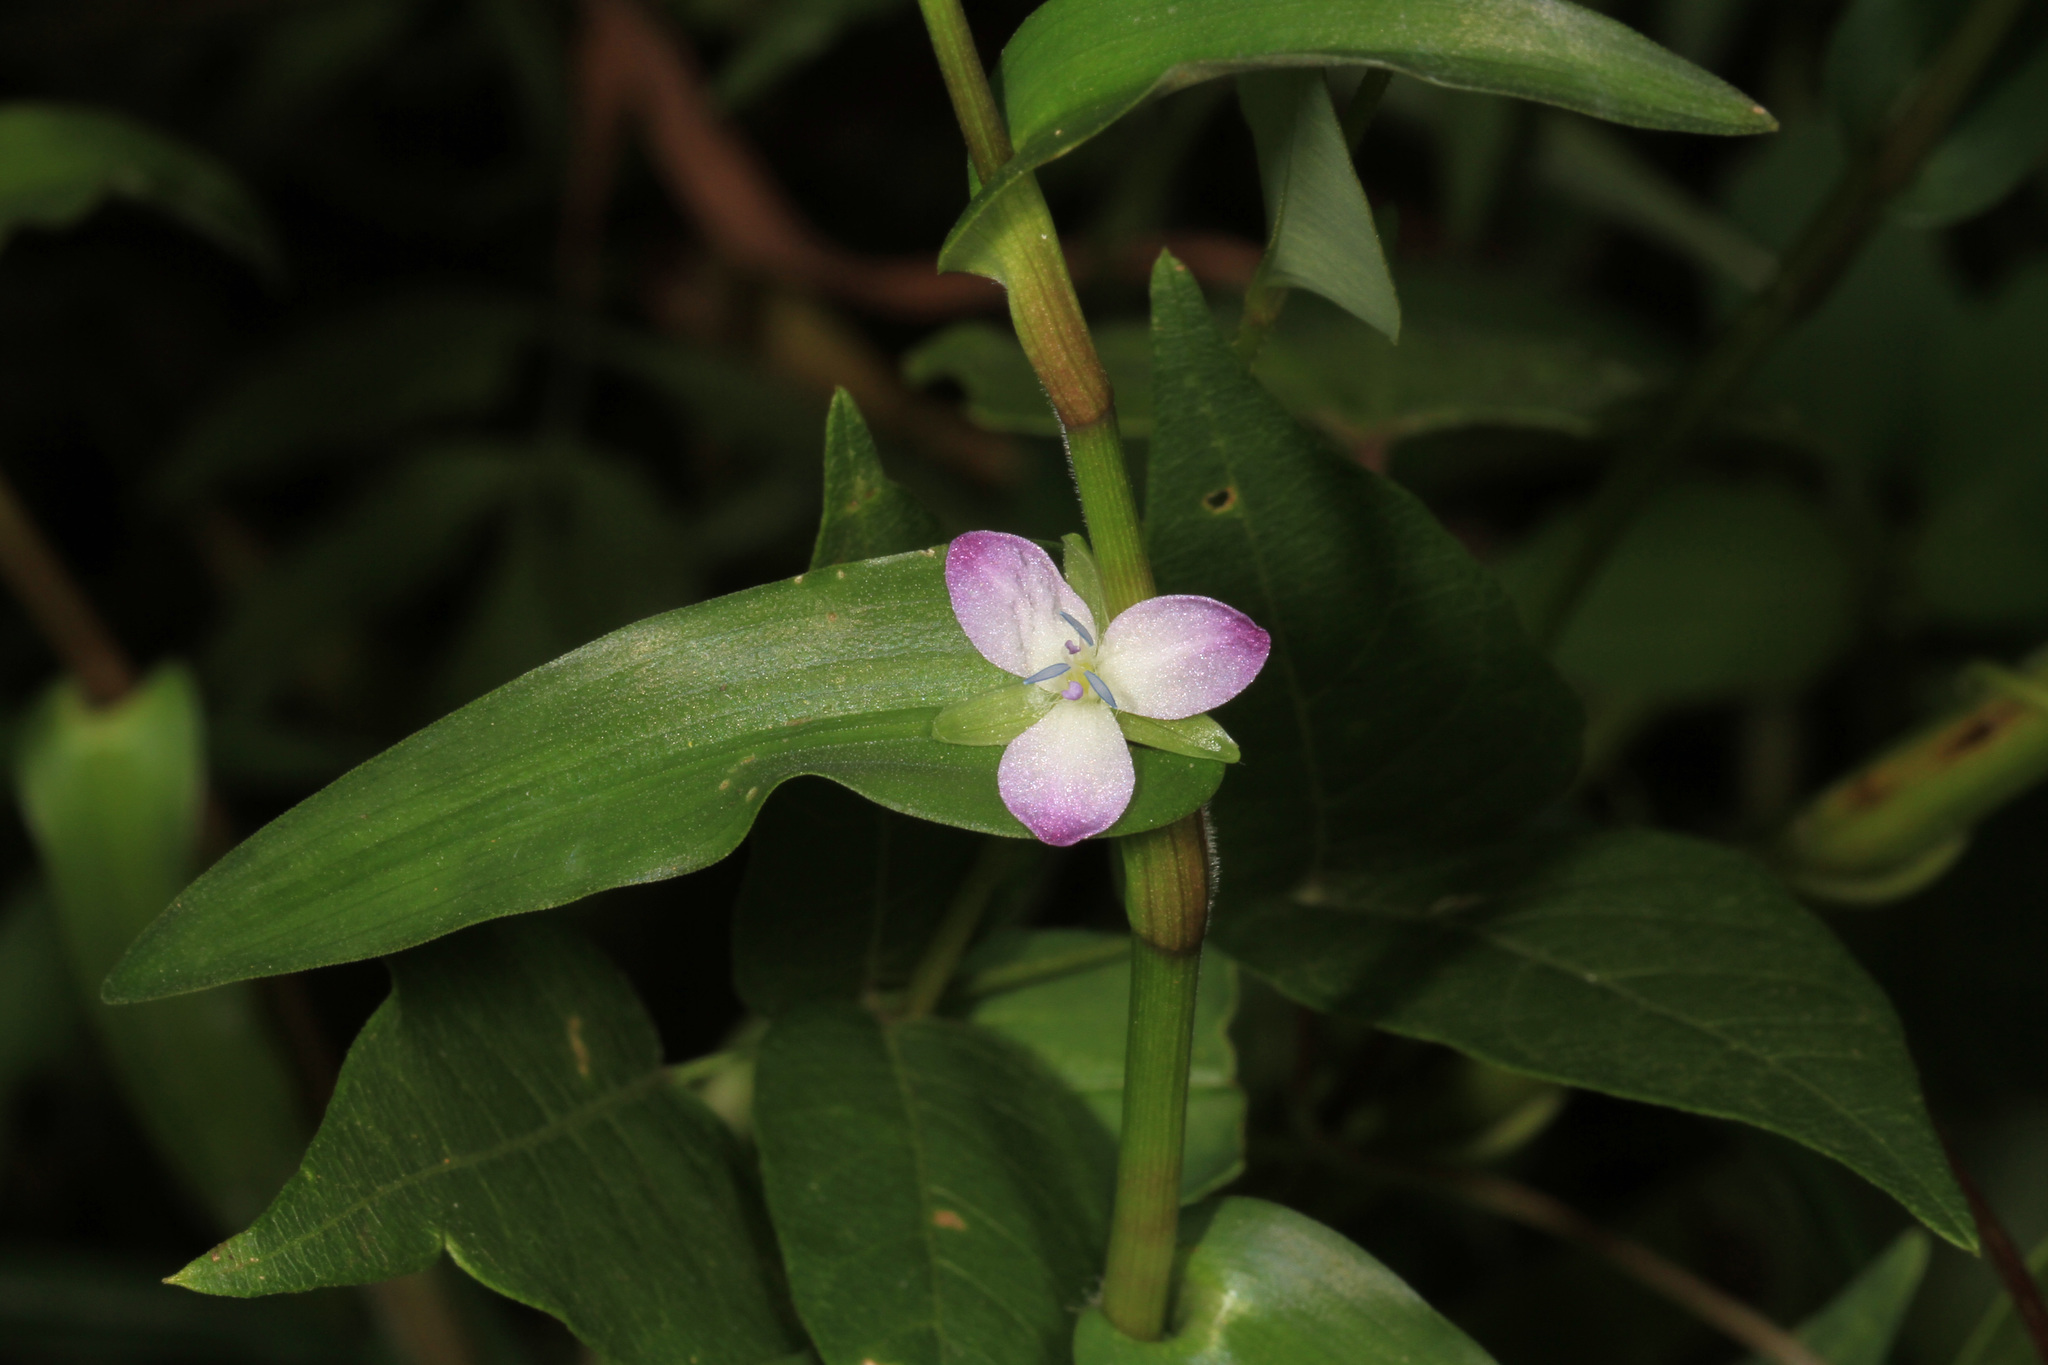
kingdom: Plantae
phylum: Tracheophyta
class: Liliopsida
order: Commelinales
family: Commelinaceae
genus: Murdannia
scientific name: Murdannia keisak
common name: Wartremoving herb
